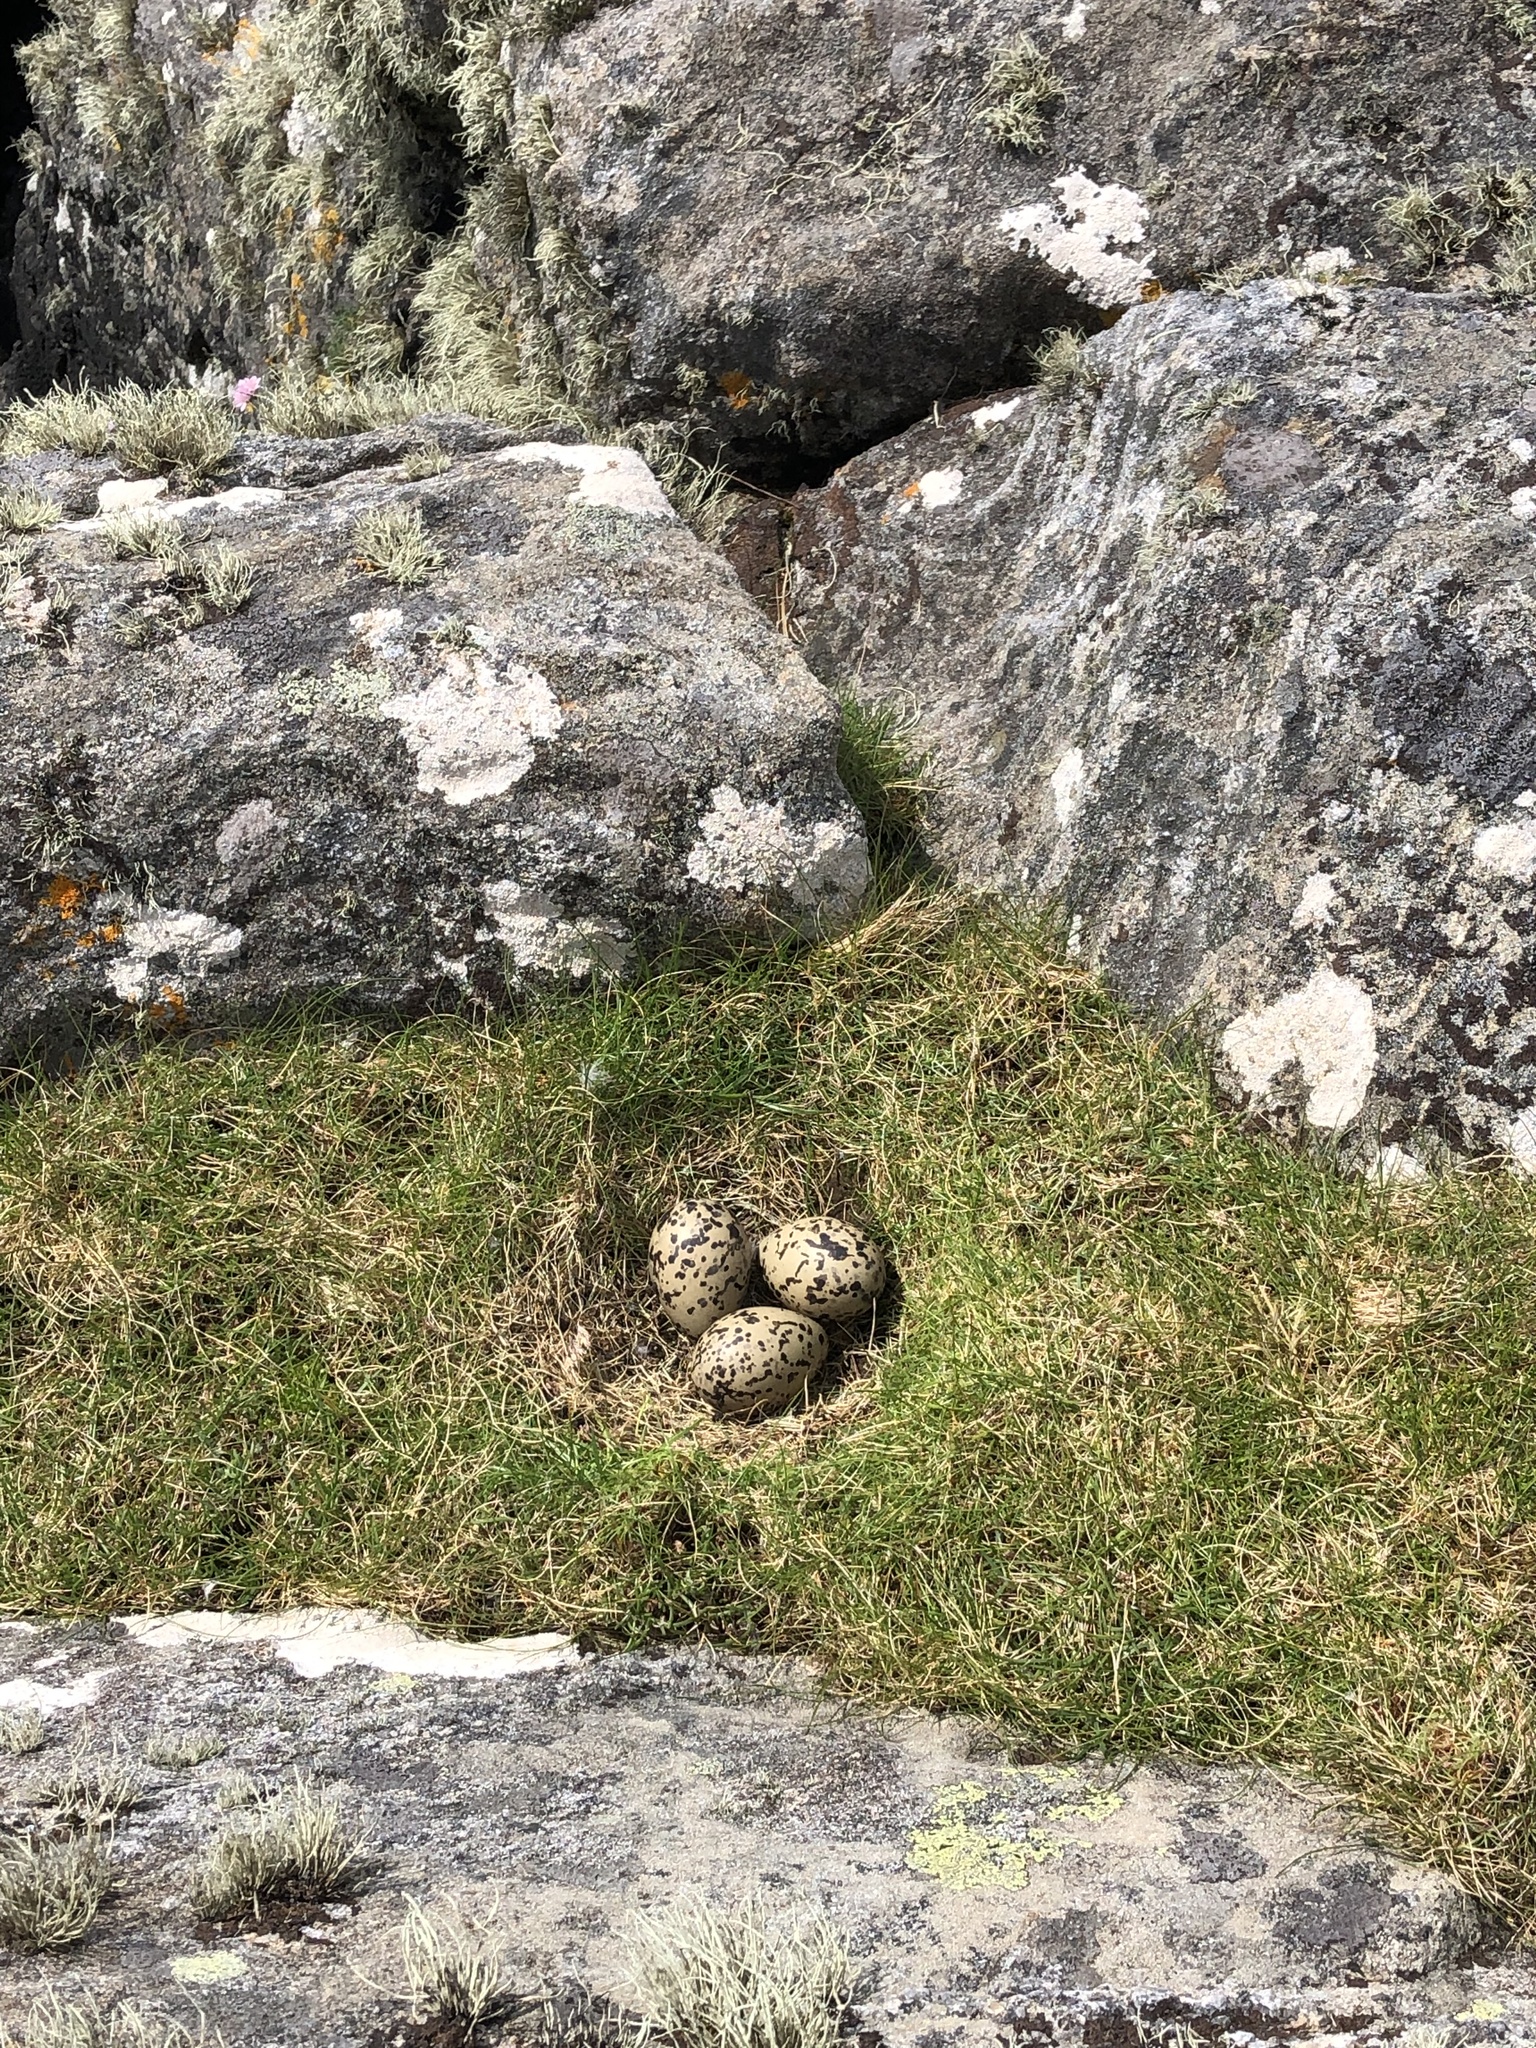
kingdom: Animalia
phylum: Chordata
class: Aves
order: Charadriiformes
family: Haematopodidae
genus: Haematopus
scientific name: Haematopus ostralegus
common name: Eurasian oystercatcher
